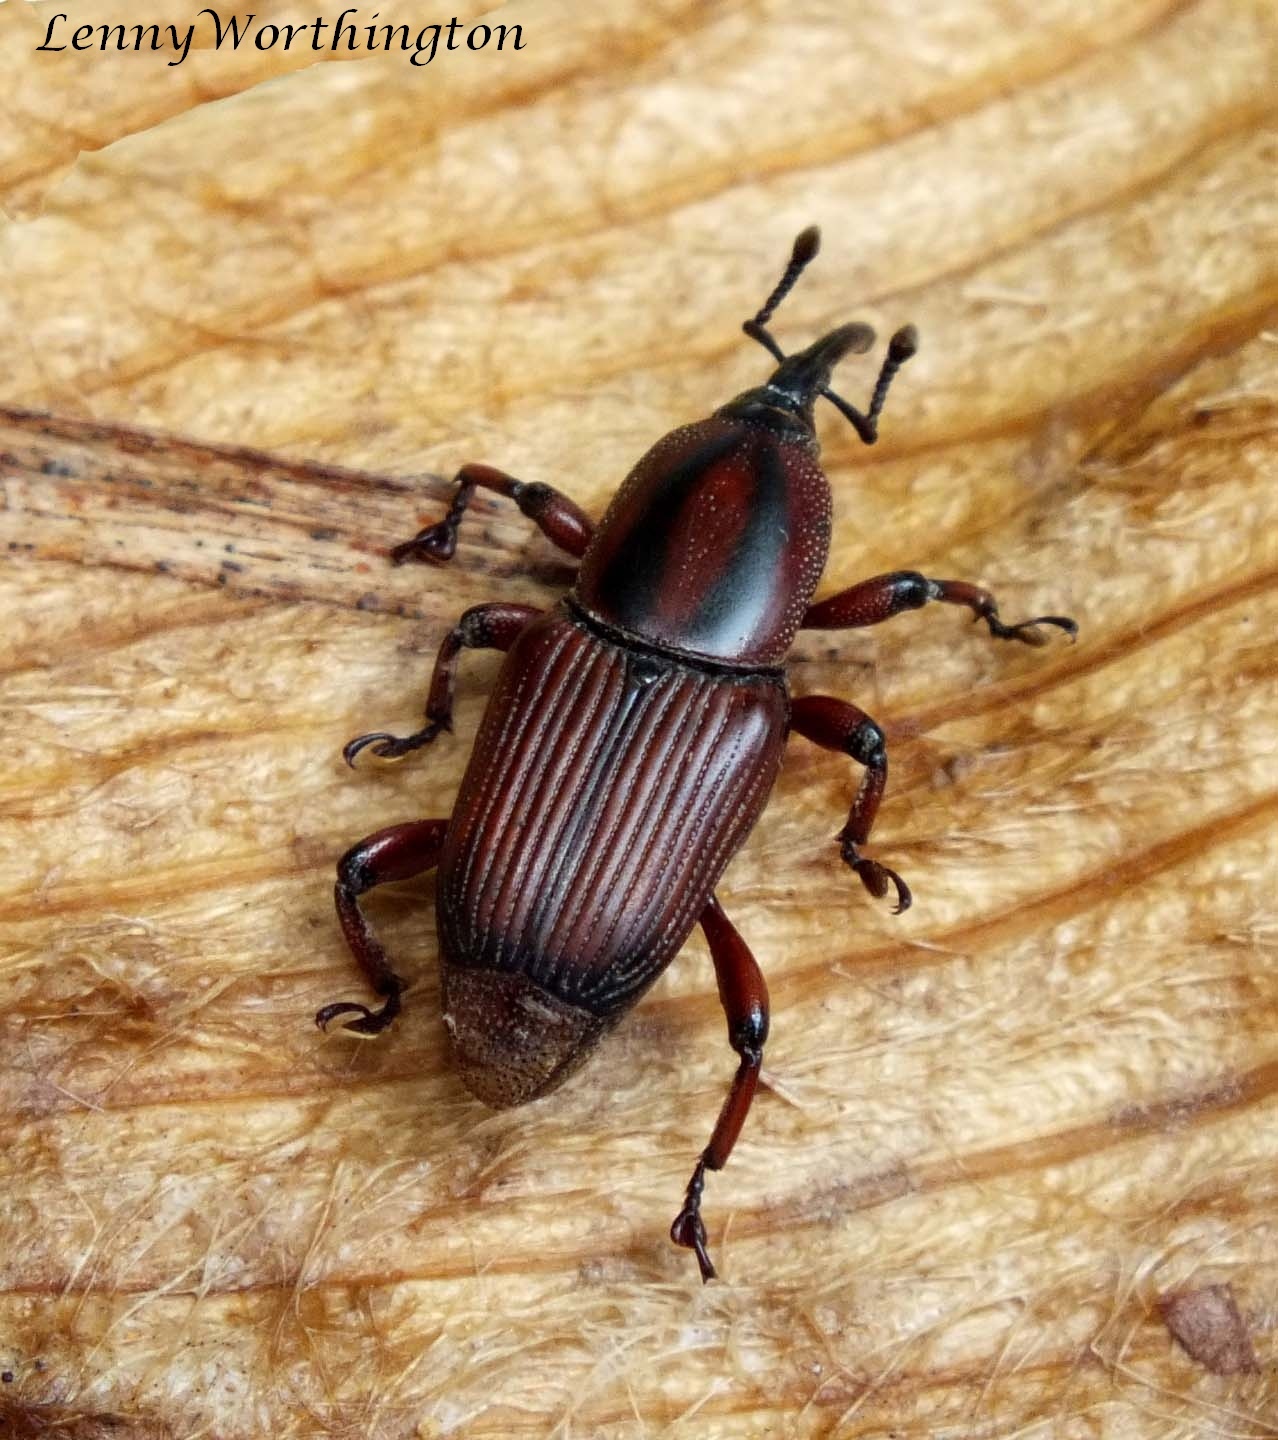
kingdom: Animalia
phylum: Arthropoda
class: Insecta
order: Coleoptera
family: Dryophthoridae
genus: Odoiporus
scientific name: Odoiporus longicollis
